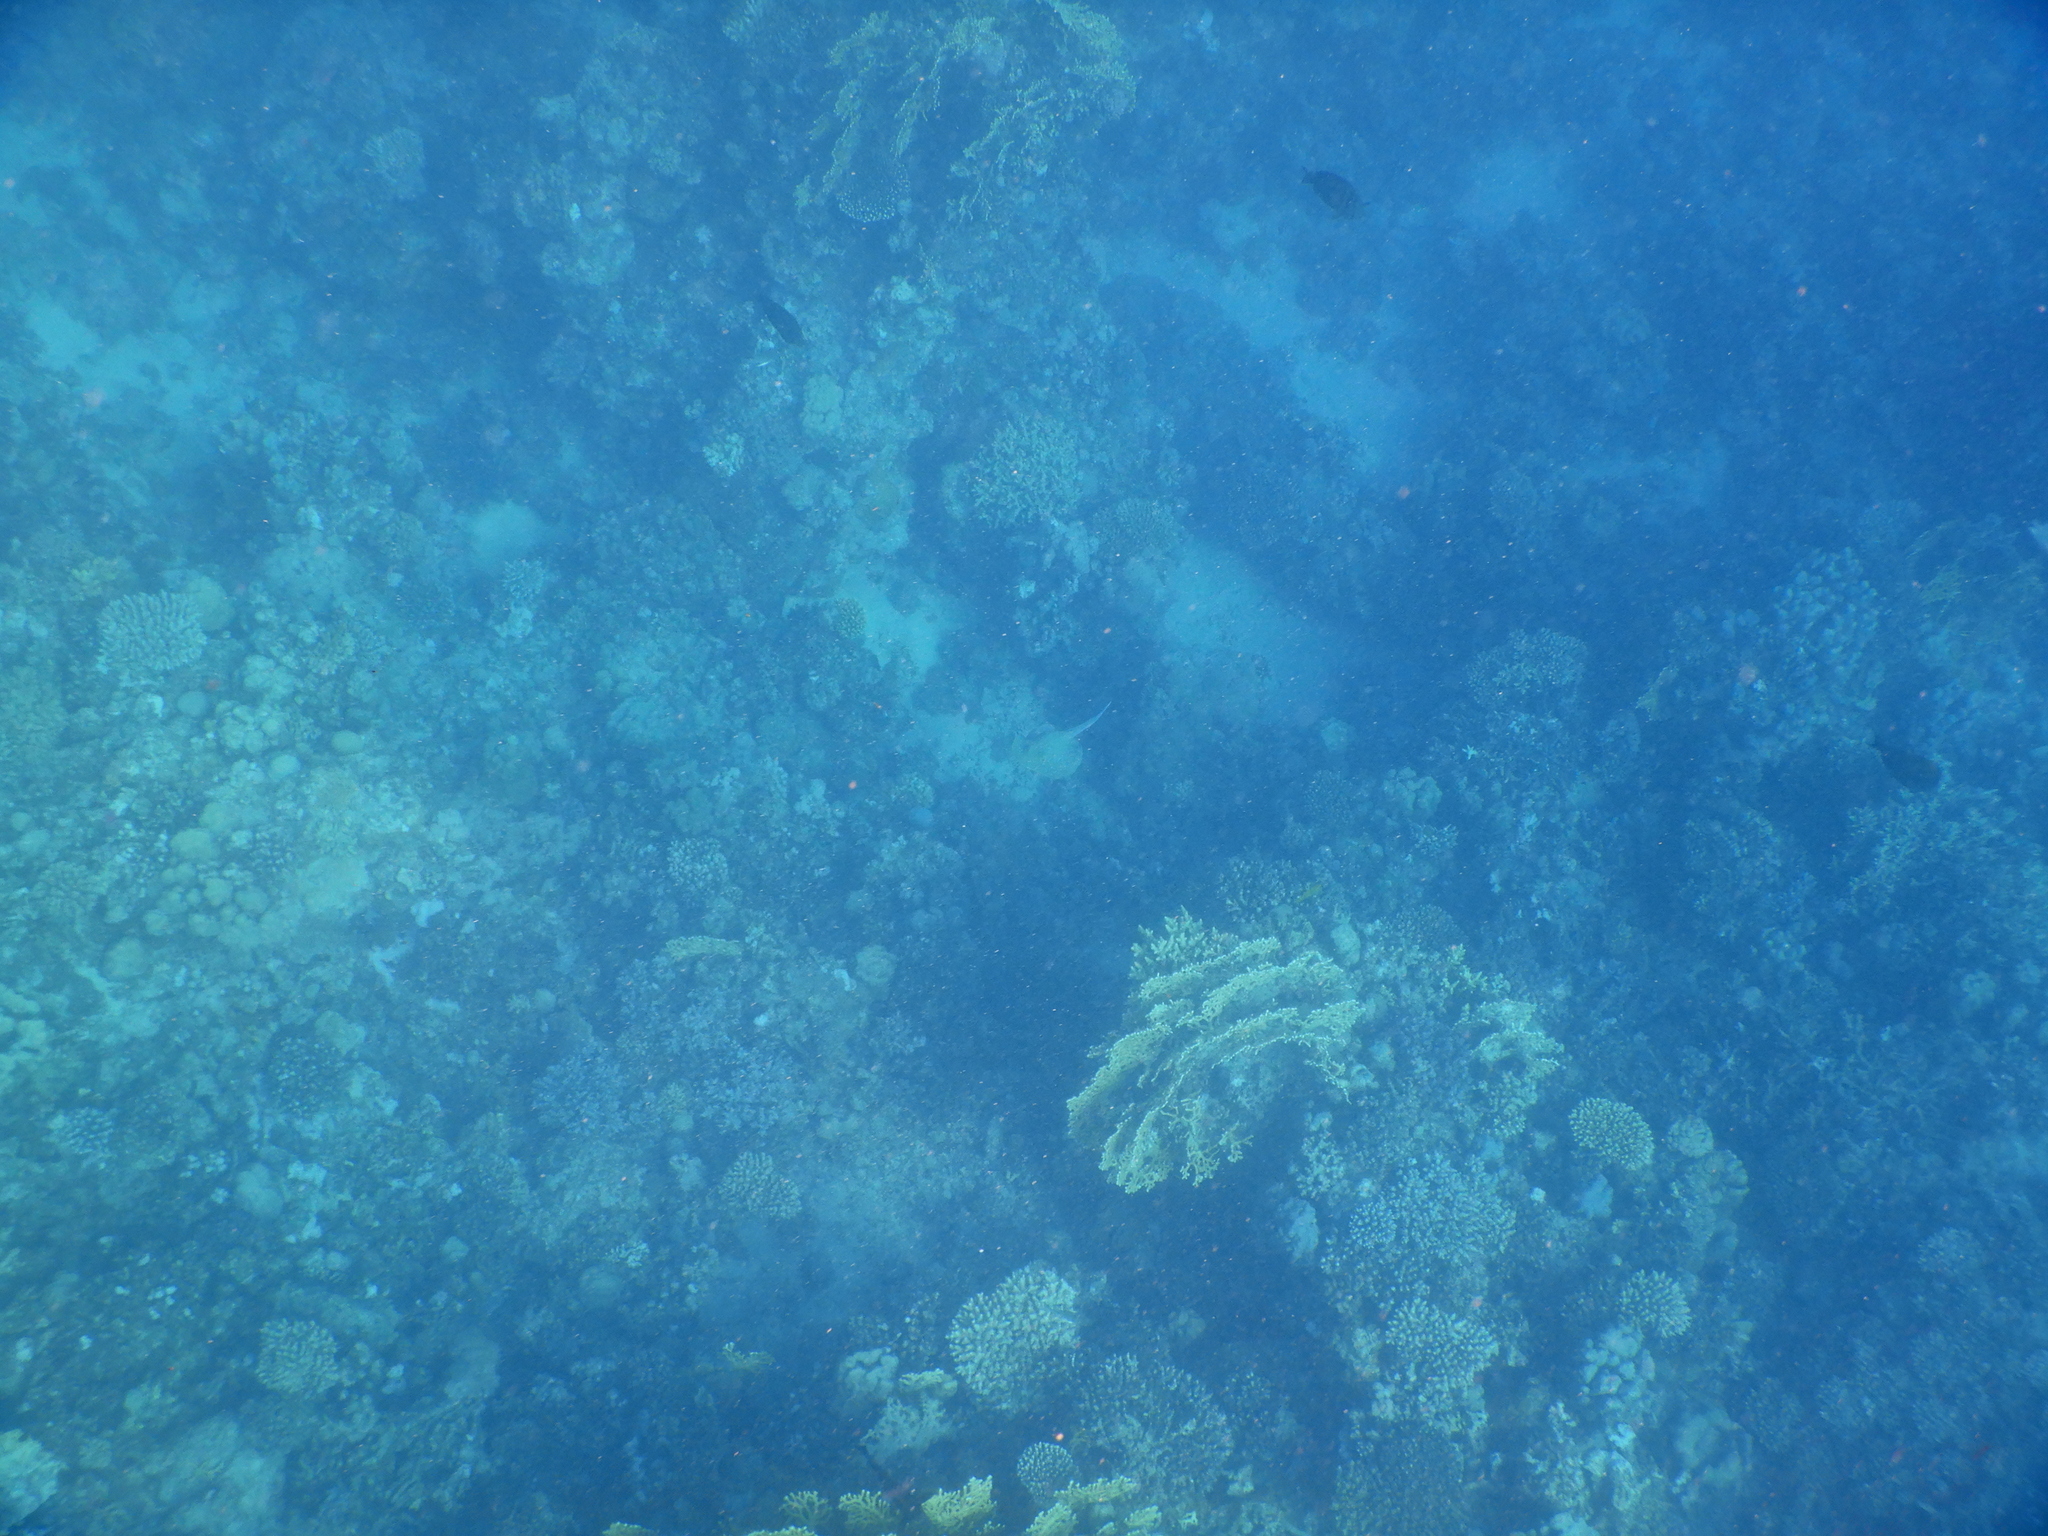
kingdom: Animalia
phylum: Chordata
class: Elasmobranchii
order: Myliobatiformes
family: Dasyatidae
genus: Taeniura
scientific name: Taeniura lymma
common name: Bluespotted ribbontail ray
